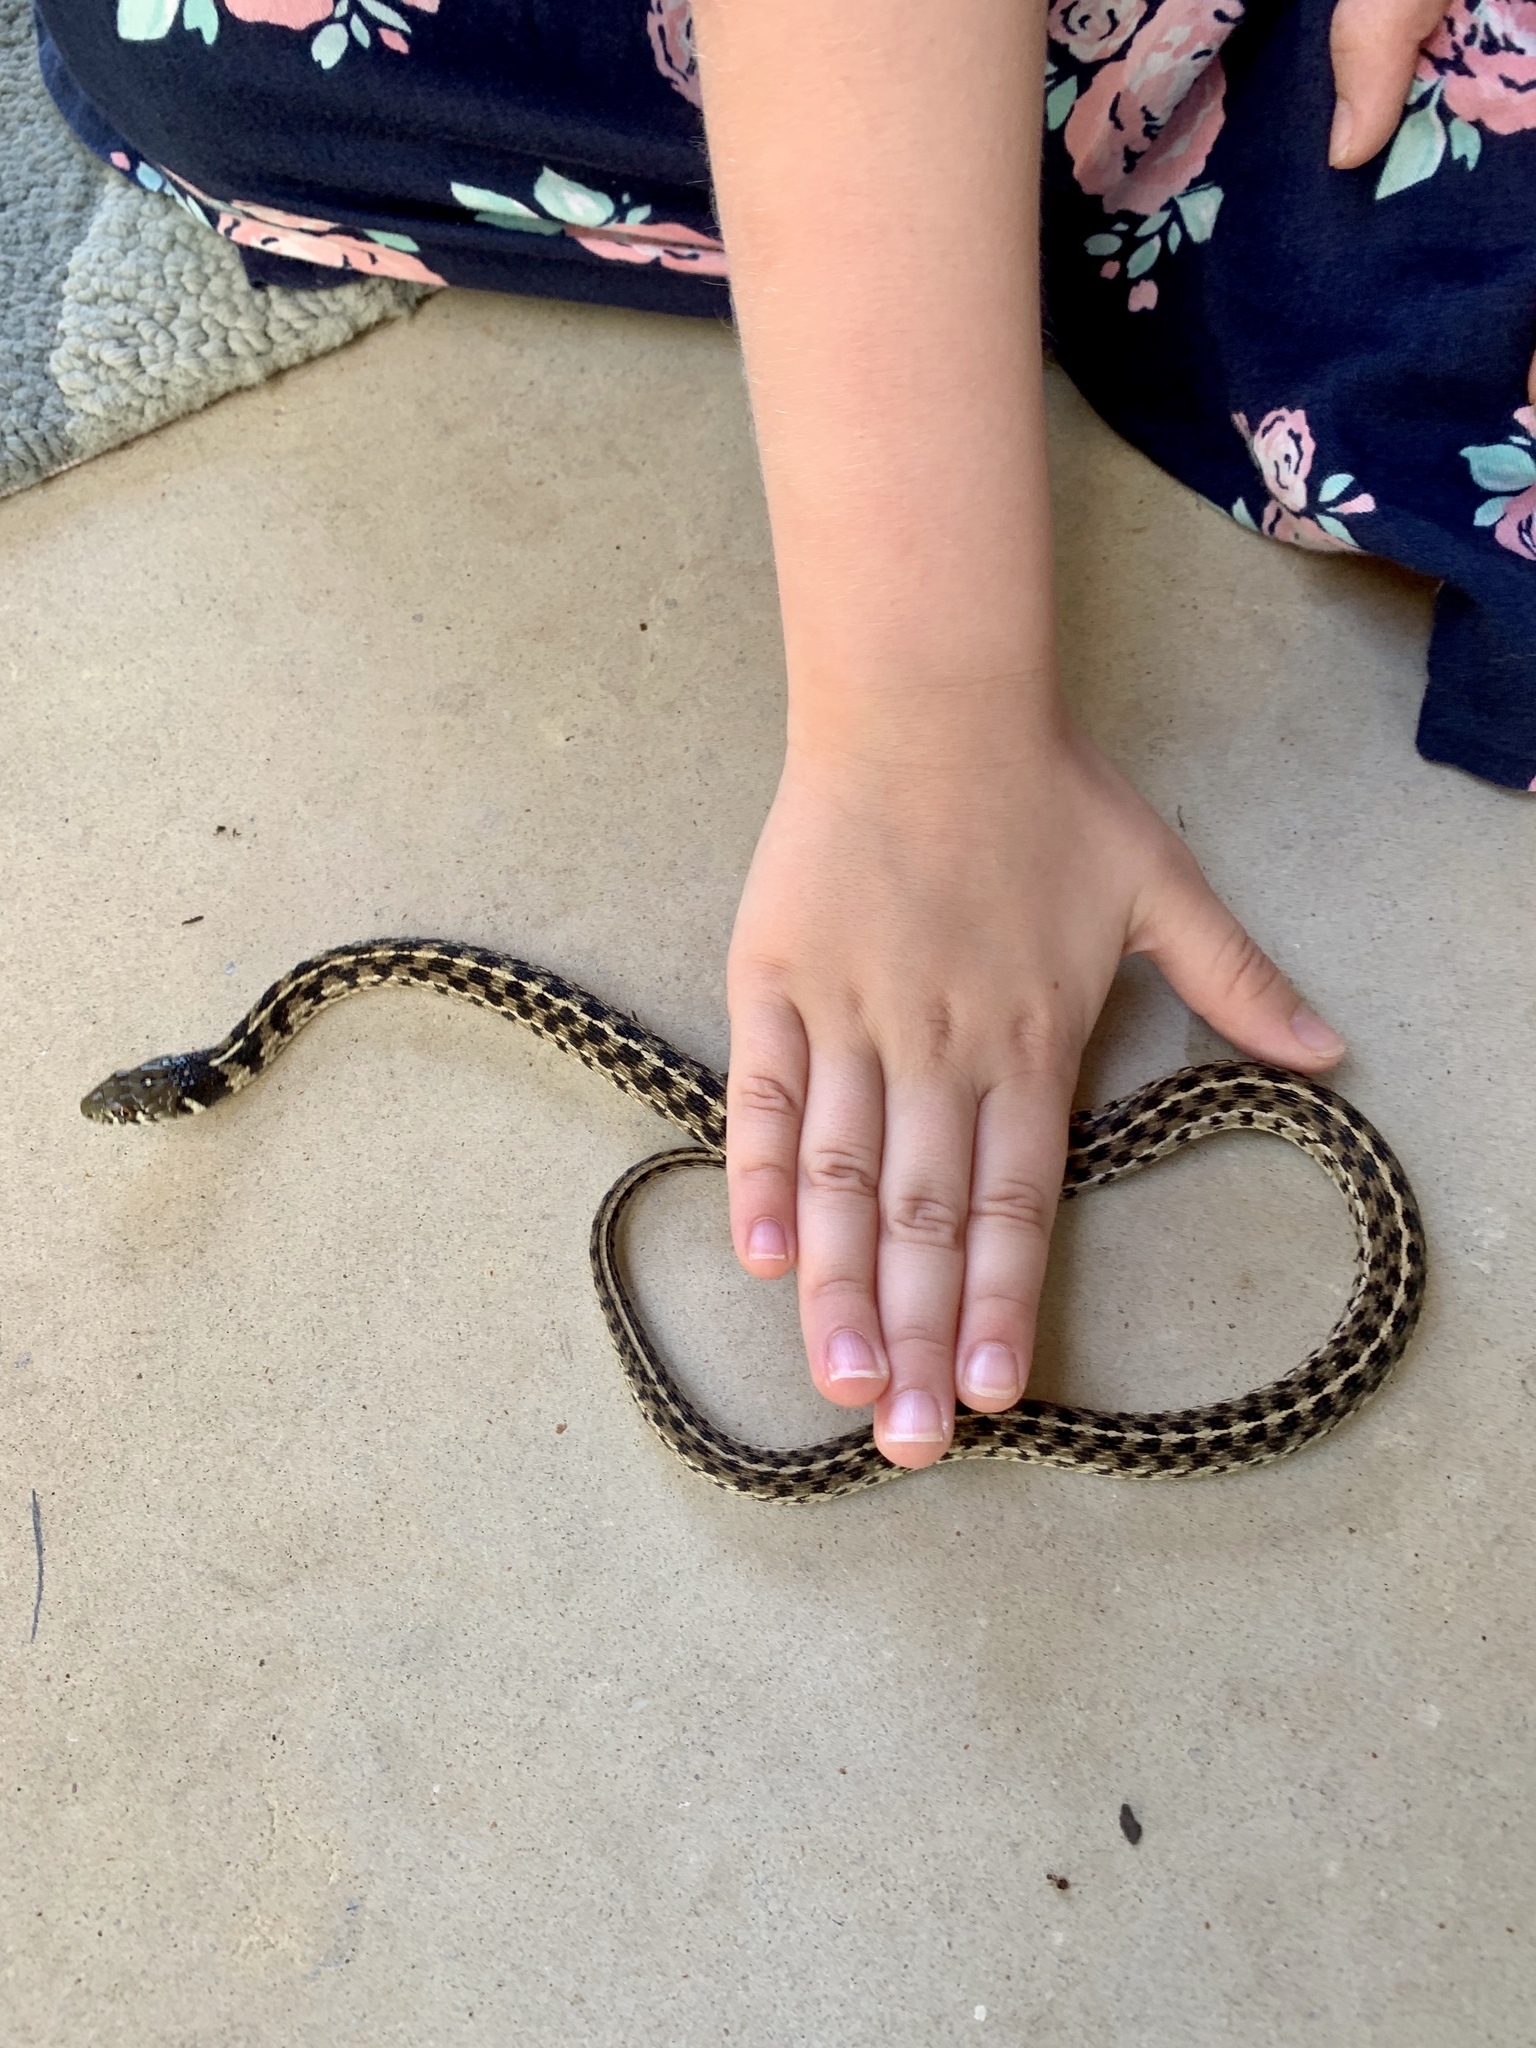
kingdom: Animalia
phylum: Chordata
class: Squamata
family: Colubridae
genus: Thamnophis
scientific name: Thamnophis marcianus
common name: Checkered garter snake
